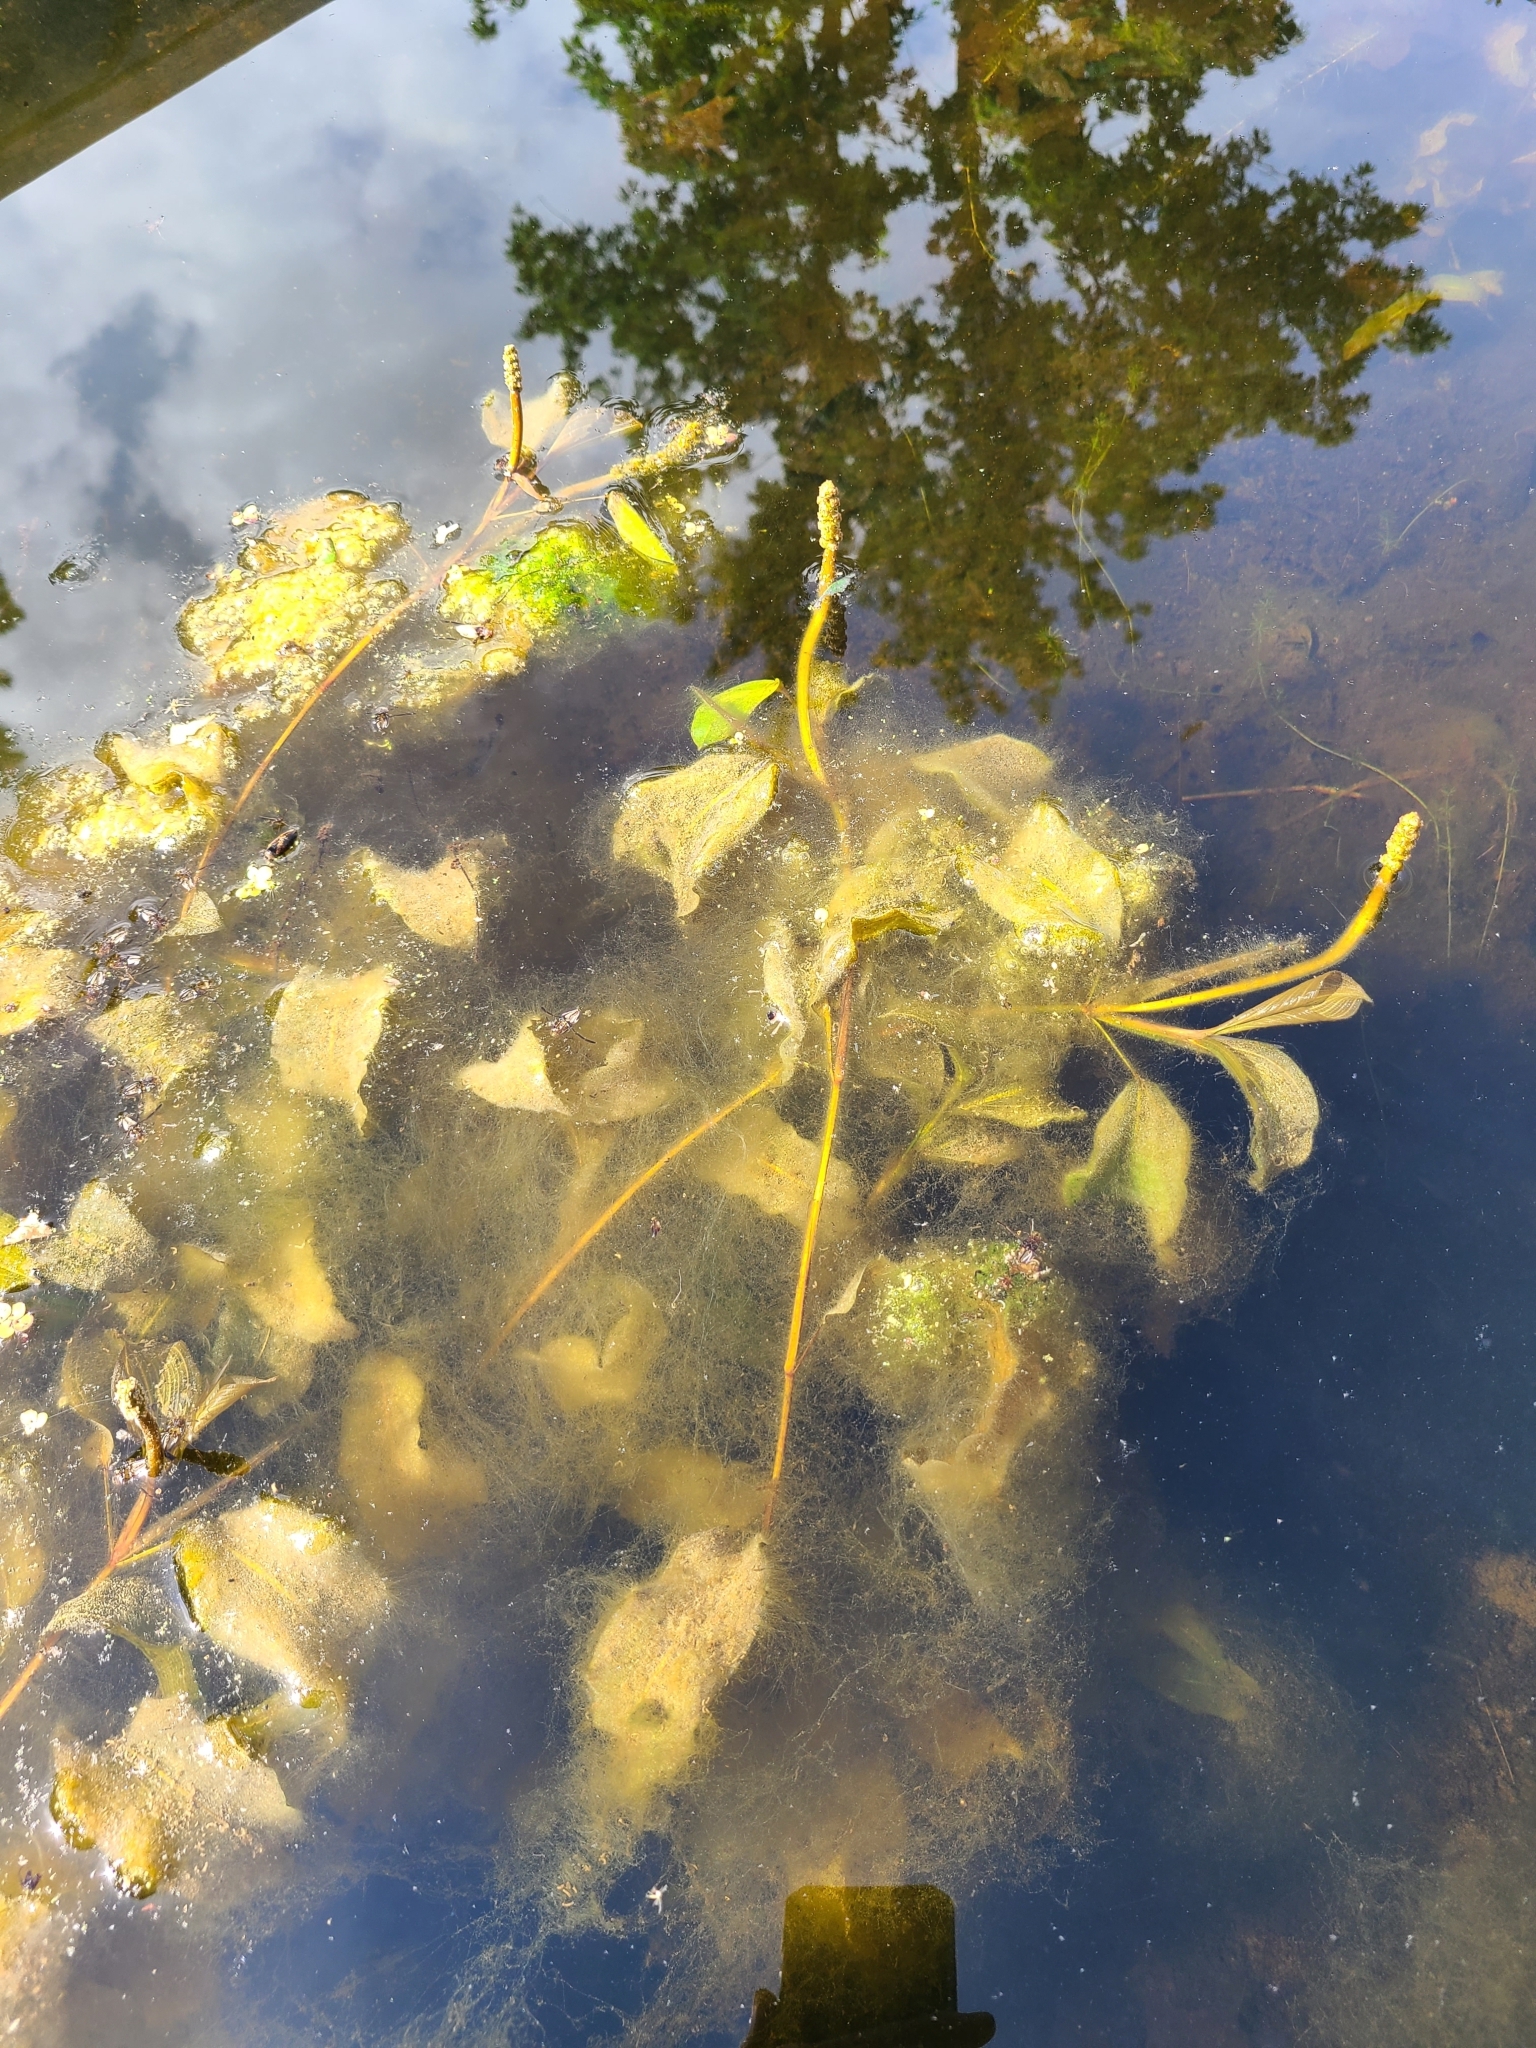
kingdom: Plantae
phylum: Tracheophyta
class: Liliopsida
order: Alismatales
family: Potamogetonaceae
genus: Potamogeton
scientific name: Potamogeton amplifolius
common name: Broad-leaved pondweed
